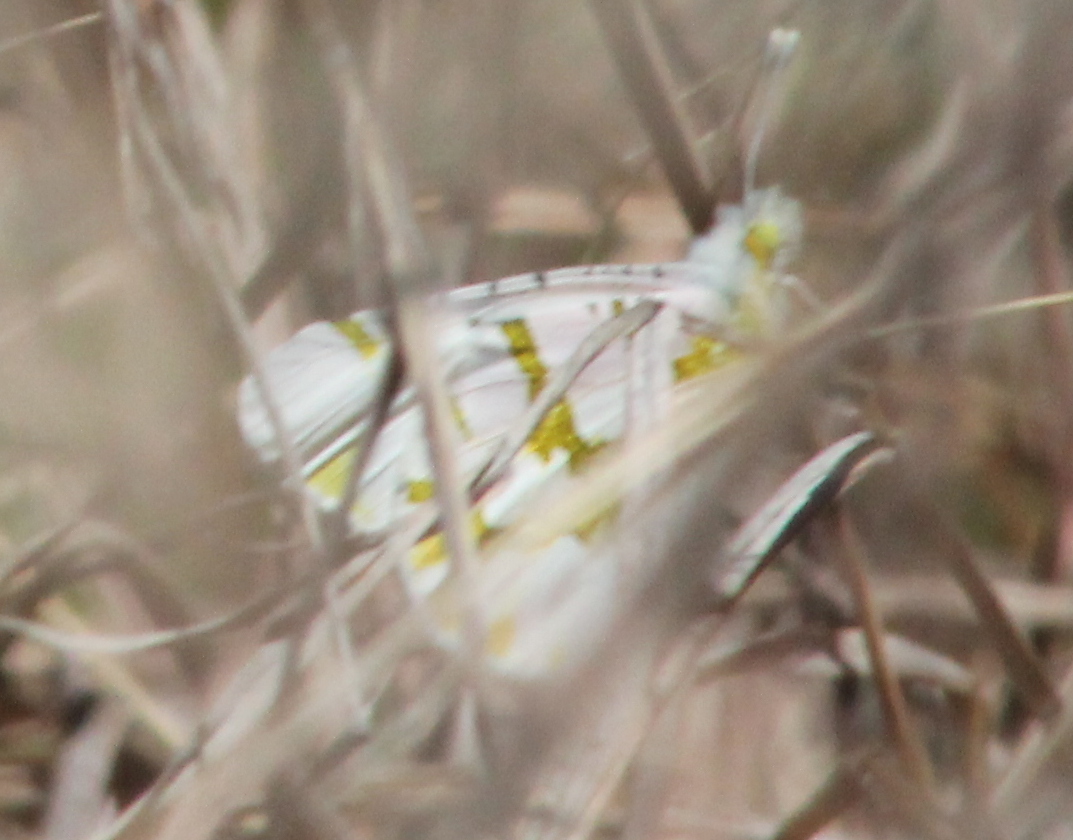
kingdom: Animalia
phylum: Arthropoda
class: Insecta
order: Lepidoptera
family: Pieridae
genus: Euchloe
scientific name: Euchloe olympia
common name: Olympia
